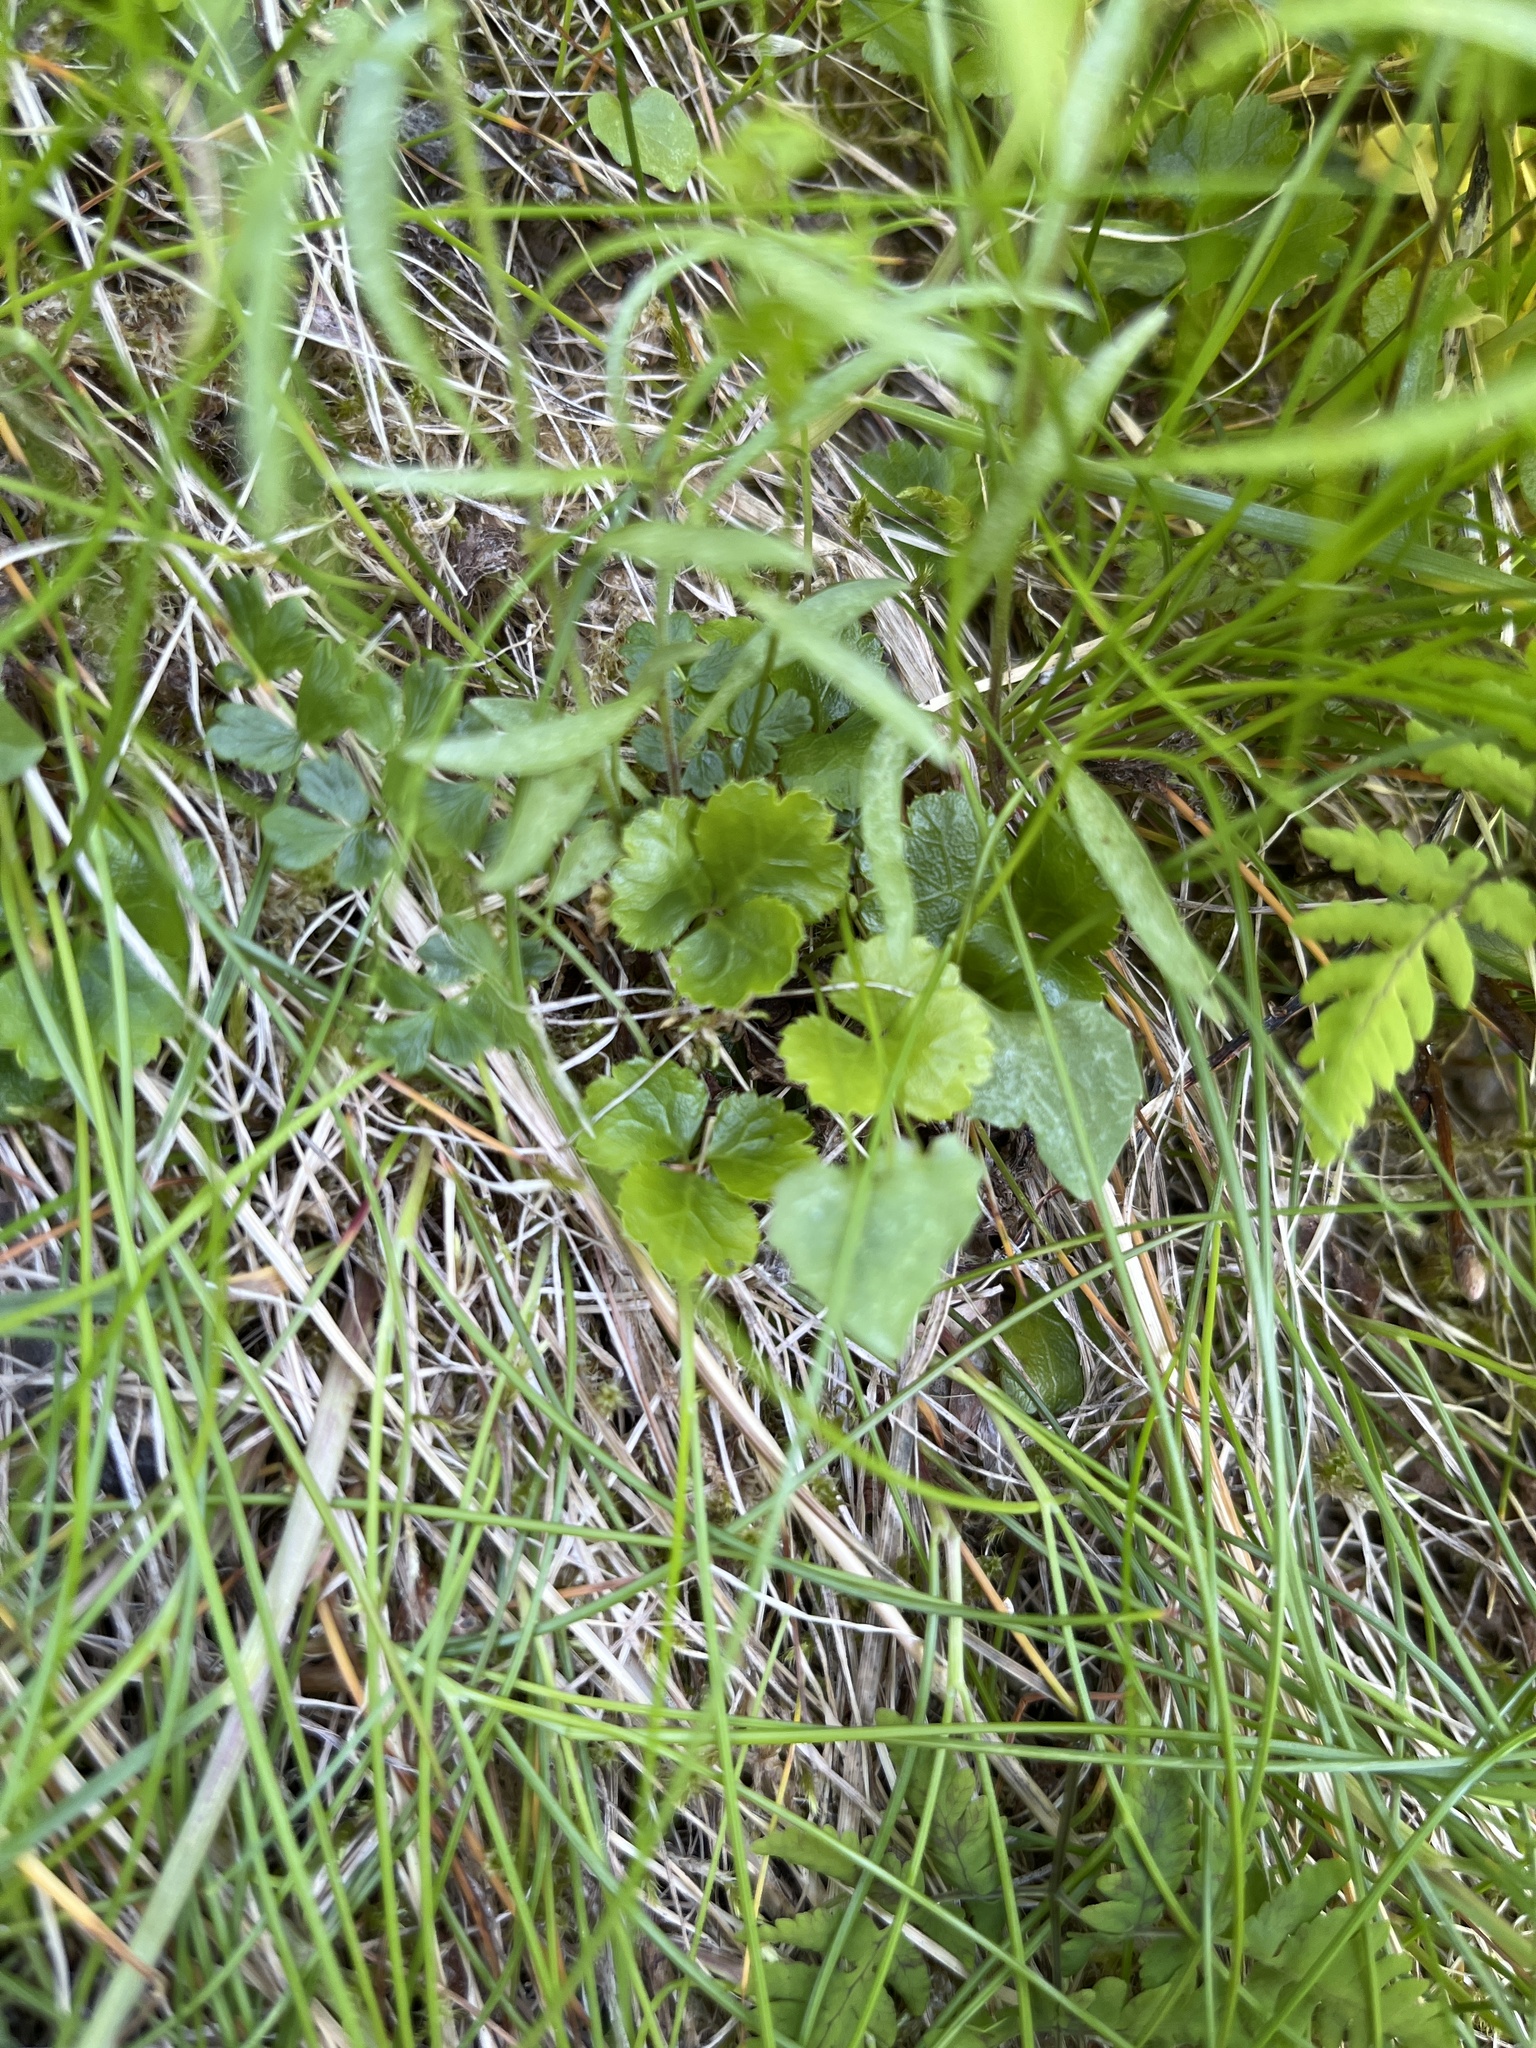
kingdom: Plantae
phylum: Tracheophyta
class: Magnoliopsida
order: Ranunculales
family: Ranunculaceae
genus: Coptis
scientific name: Coptis trifolia
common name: Canker-root
